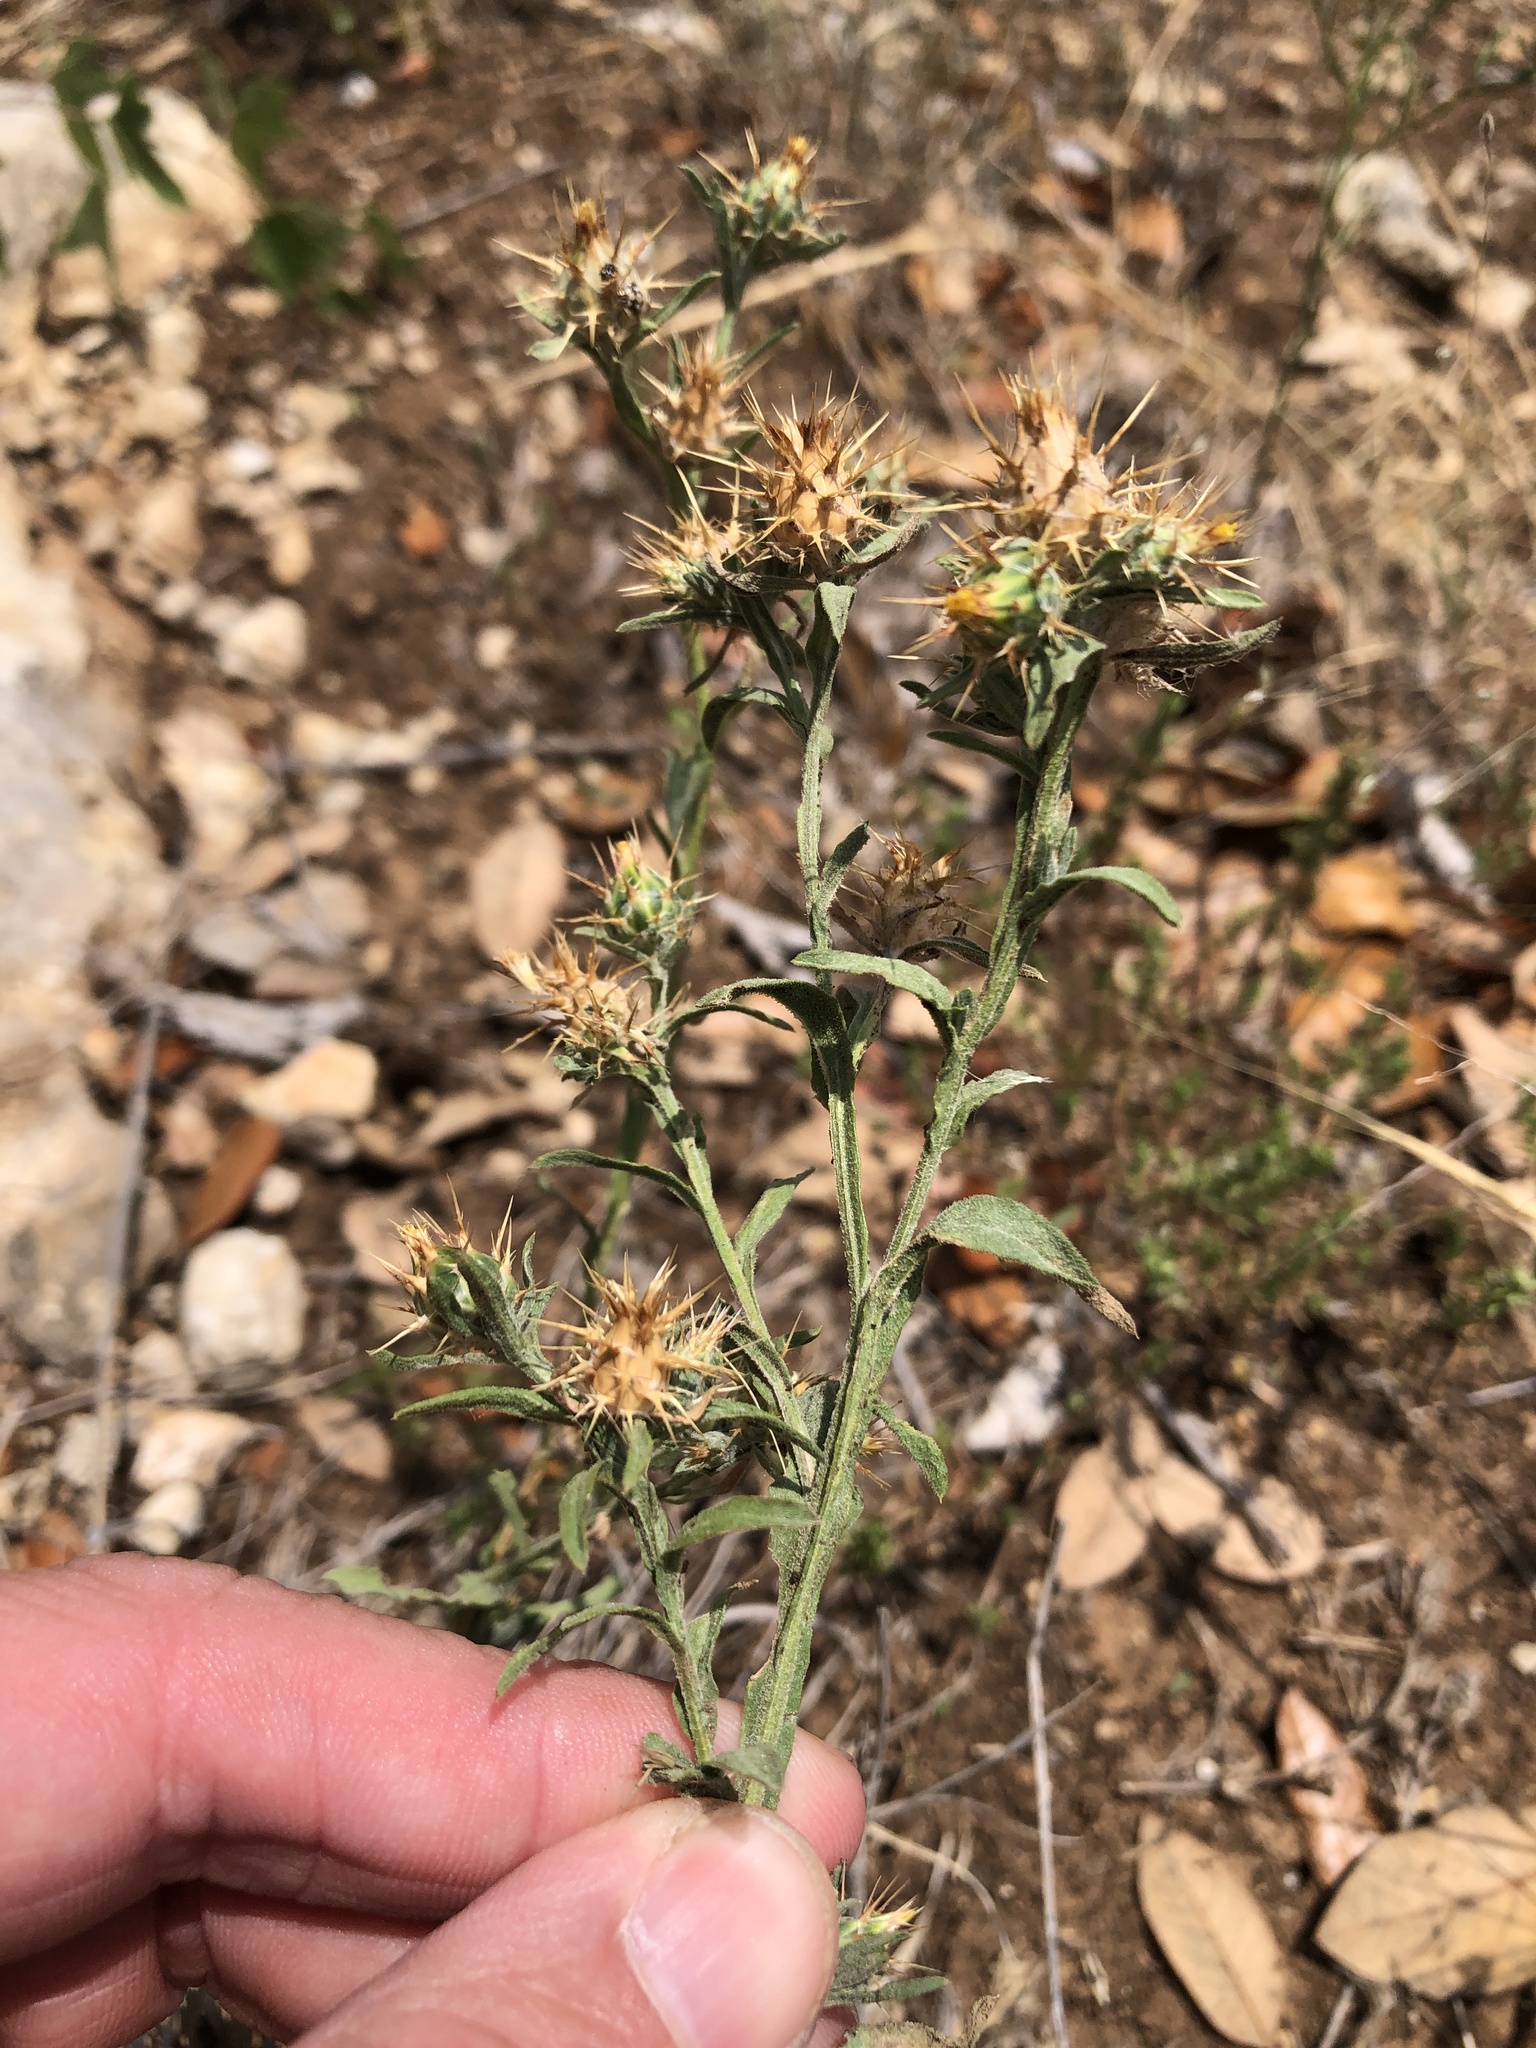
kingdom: Plantae
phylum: Tracheophyta
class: Magnoliopsida
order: Asterales
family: Asteraceae
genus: Centaurea
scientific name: Centaurea melitensis
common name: Maltese star-thistle
